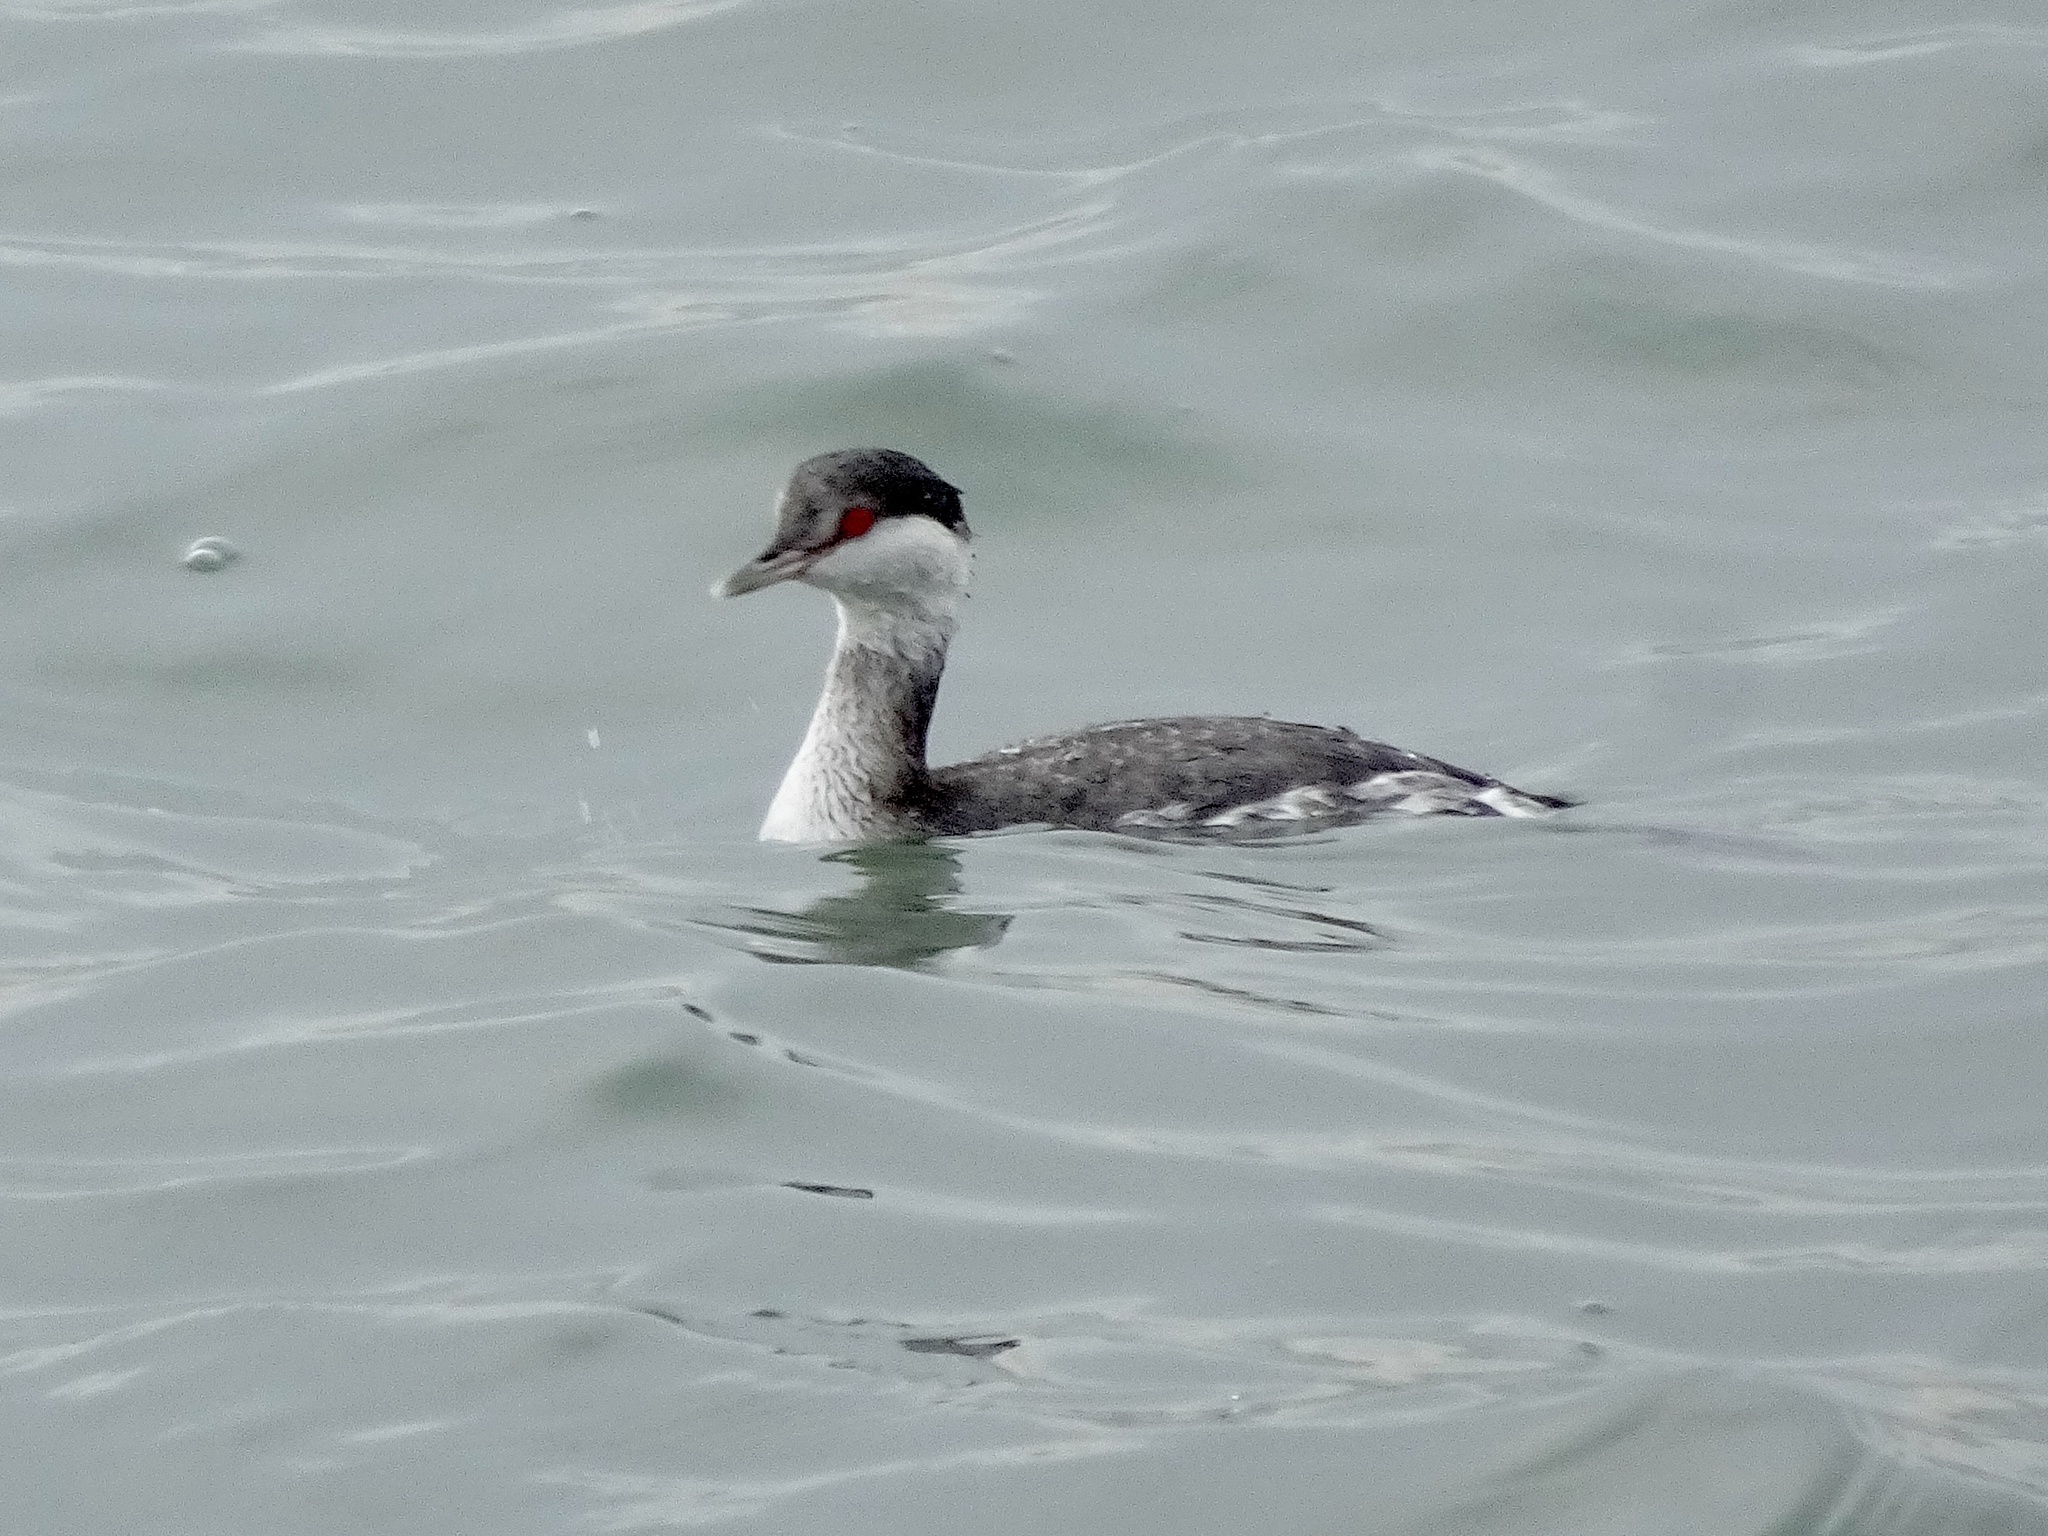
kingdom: Animalia
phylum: Chordata
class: Aves
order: Podicipediformes
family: Podicipedidae
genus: Podiceps
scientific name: Podiceps auritus
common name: Horned grebe
